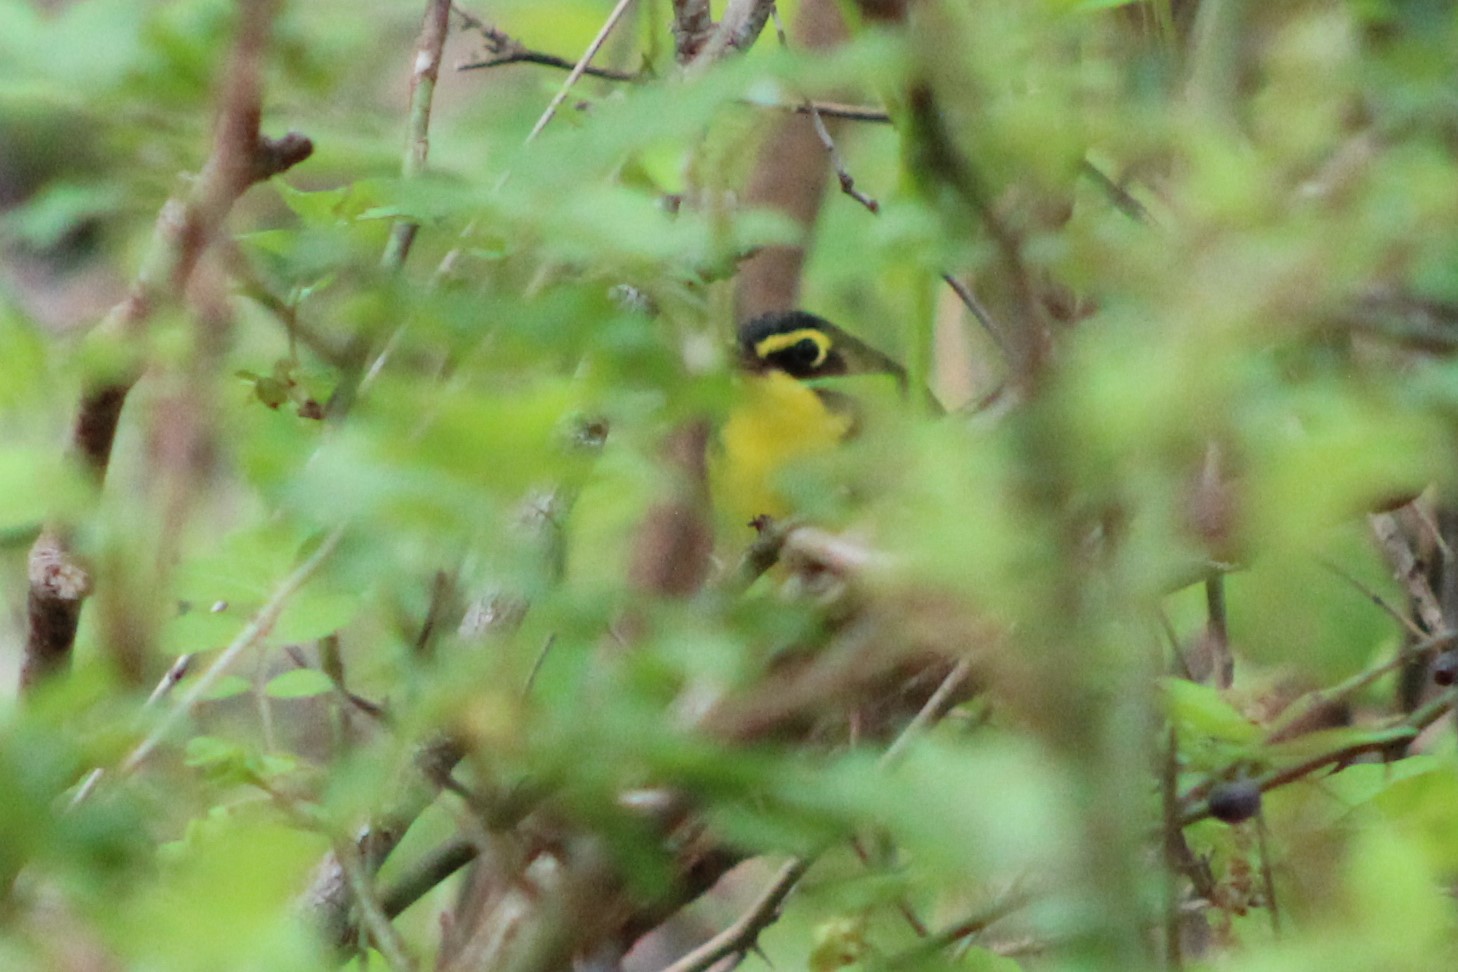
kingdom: Animalia
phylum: Chordata
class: Aves
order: Passeriformes
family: Parulidae
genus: Geothlypis
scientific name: Geothlypis formosa
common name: Kentucky warbler
